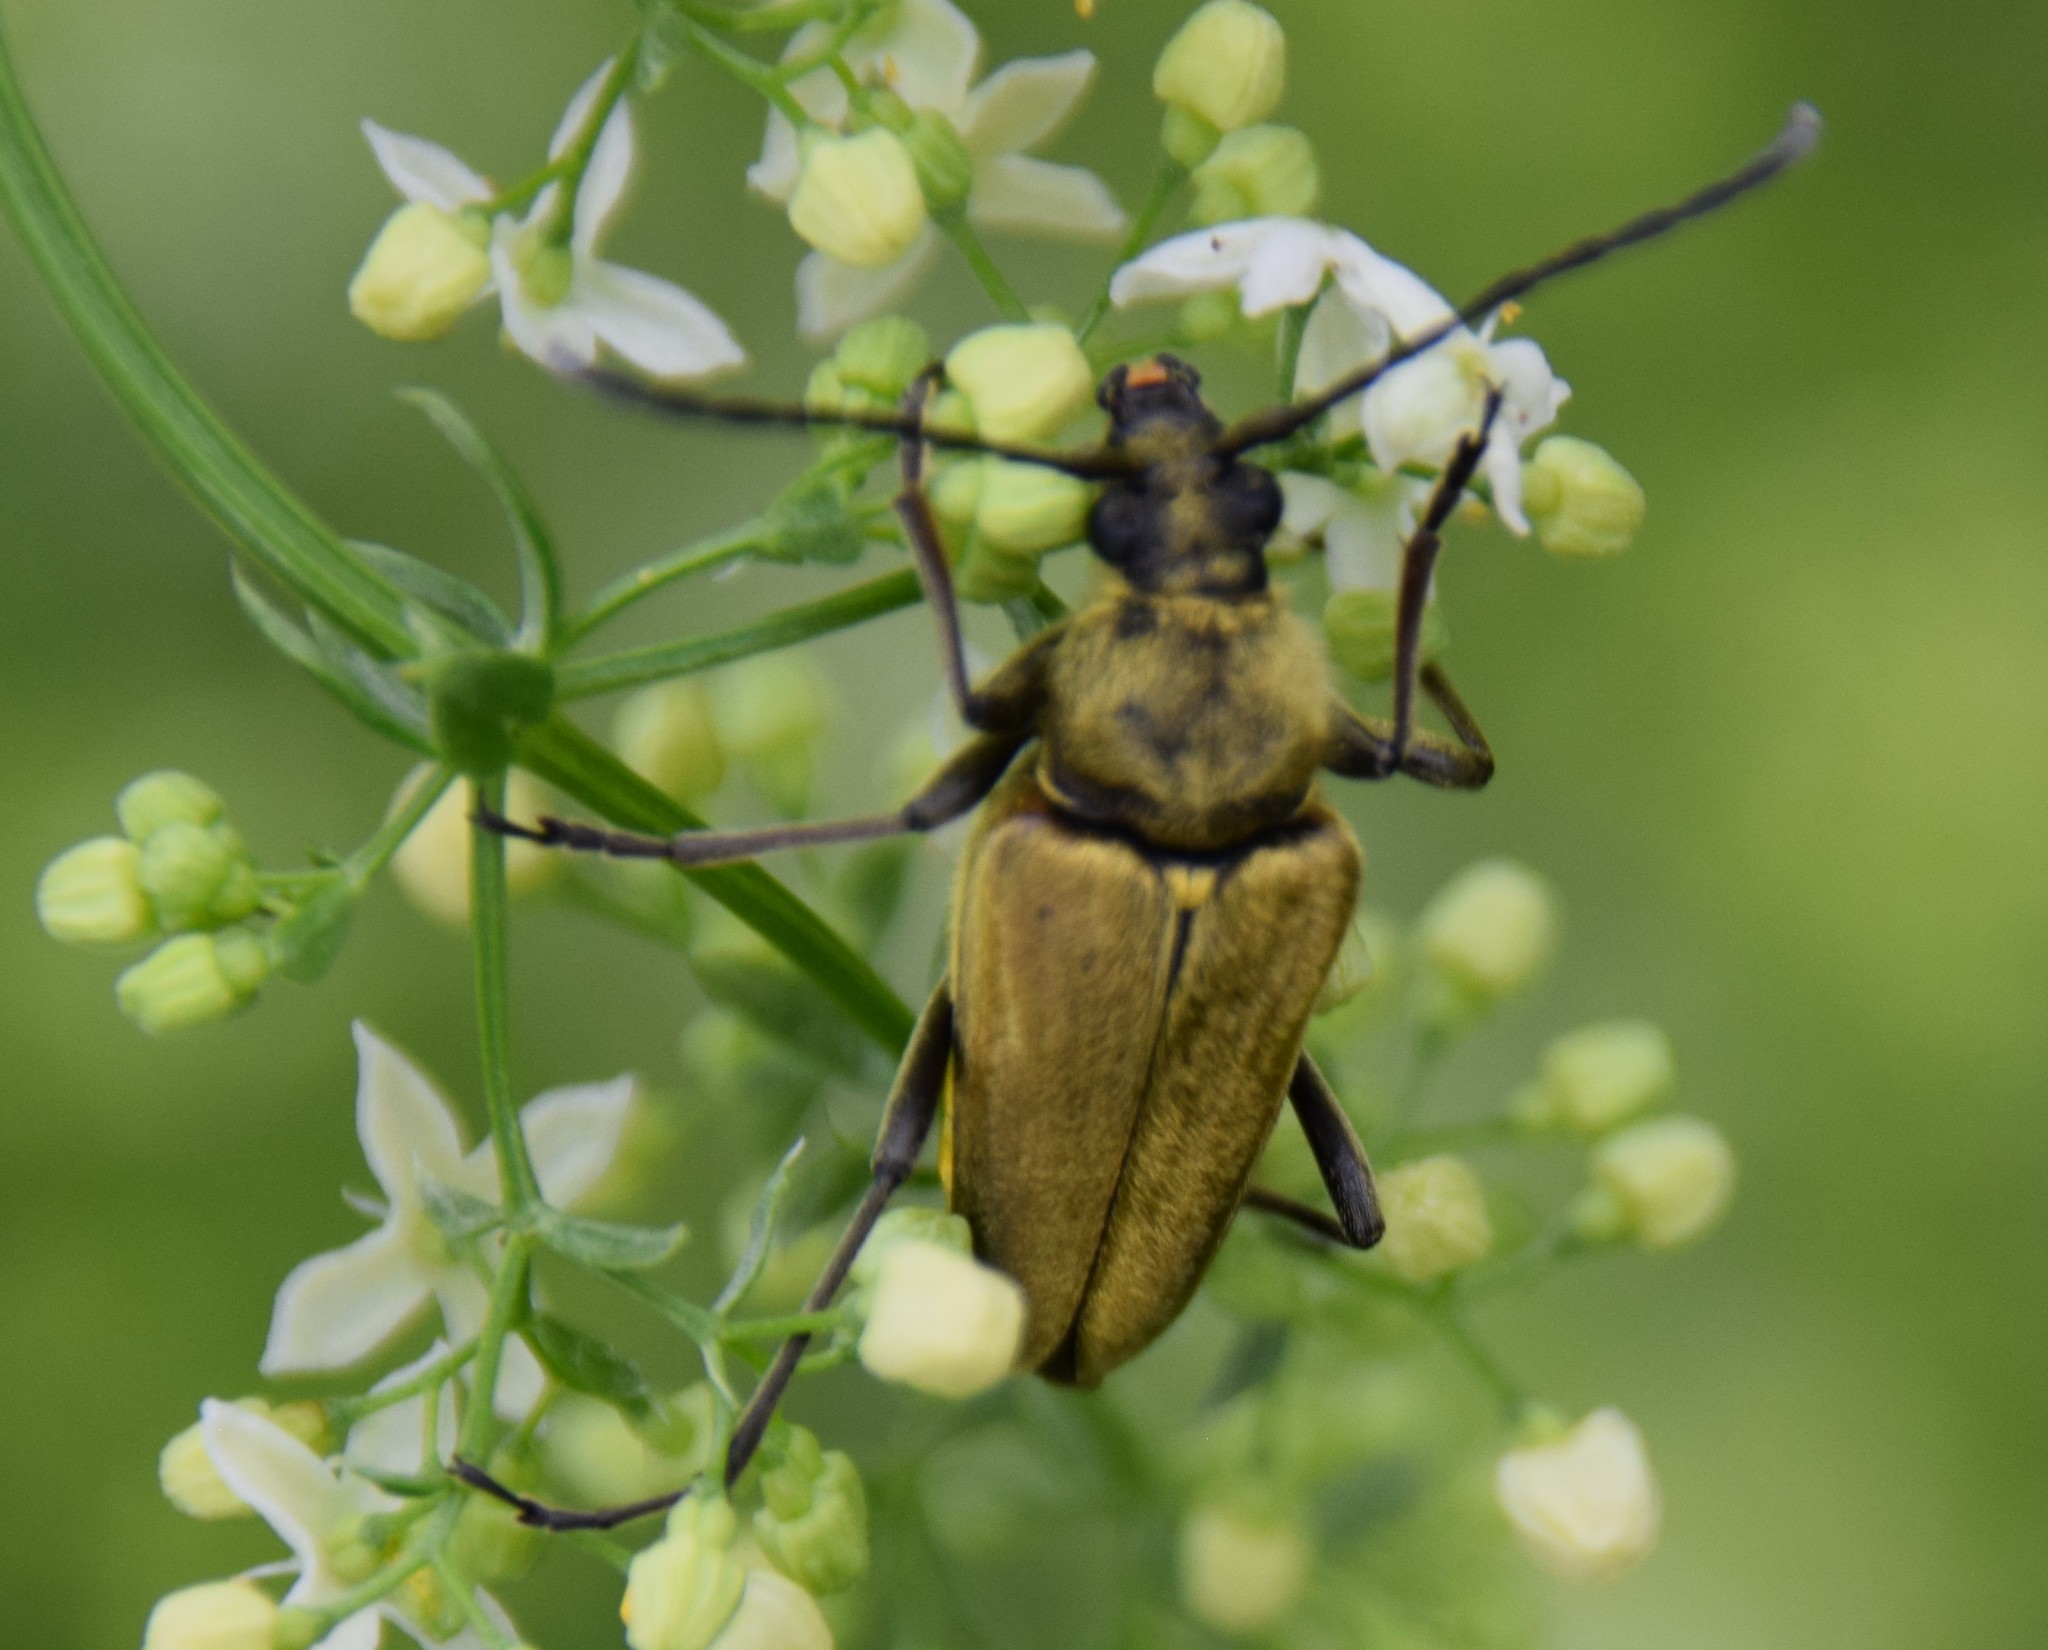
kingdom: Animalia
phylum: Arthropoda
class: Insecta
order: Coleoptera
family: Cerambycidae
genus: Cosmosalia
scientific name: Cosmosalia chrysocoma
